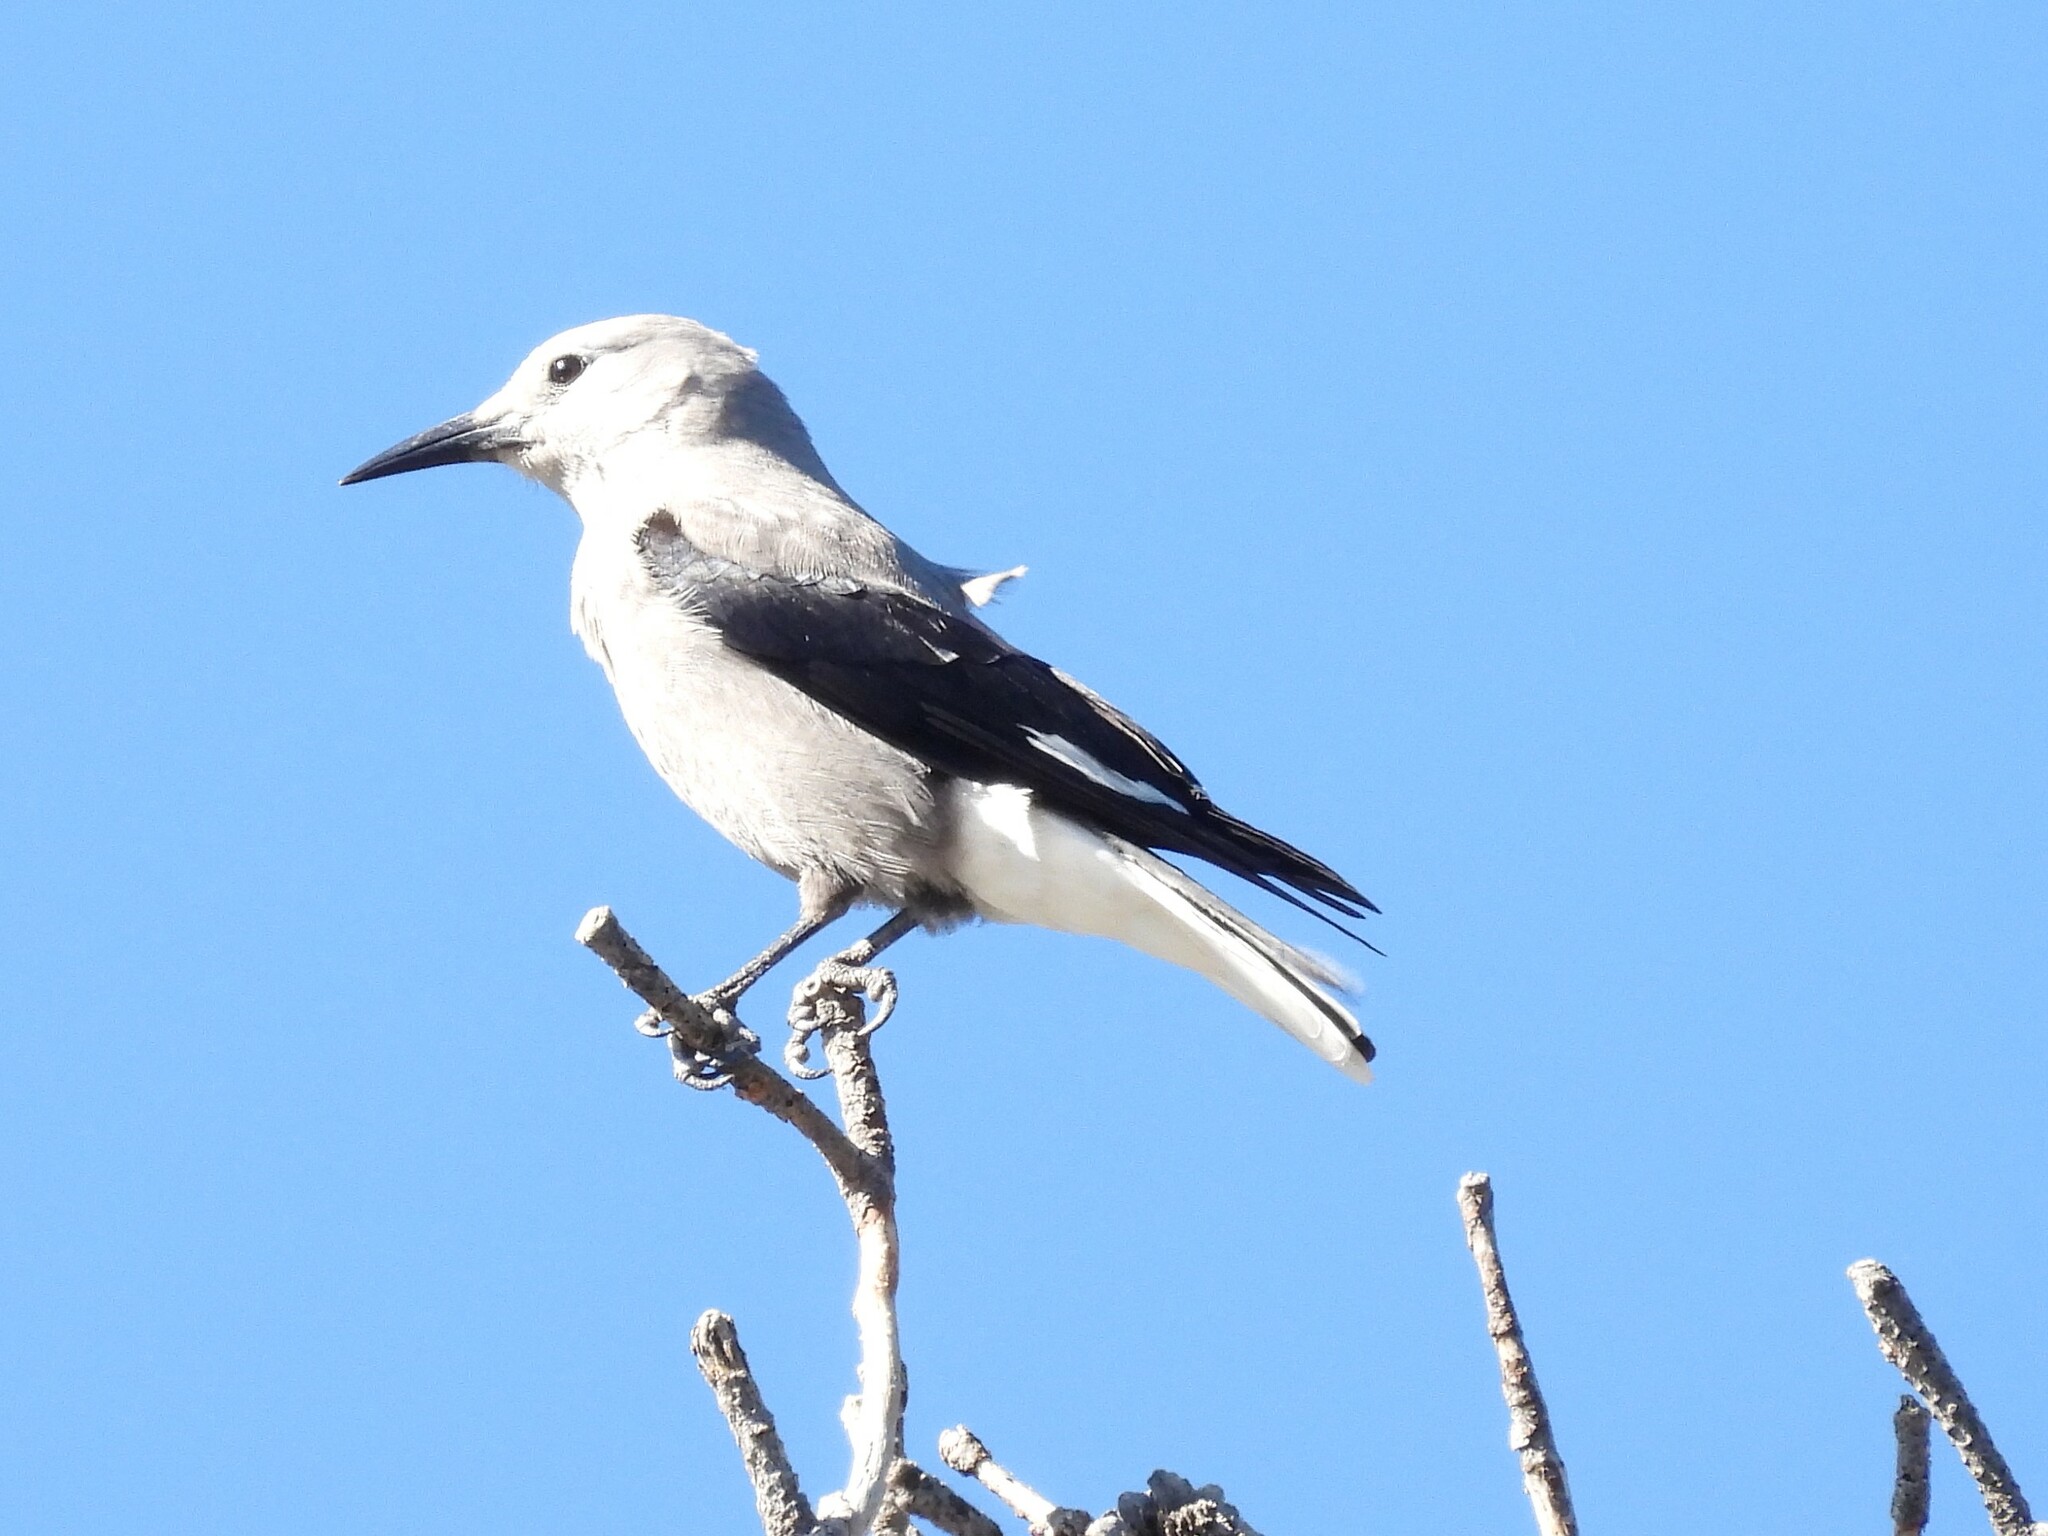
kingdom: Animalia
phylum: Chordata
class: Aves
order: Passeriformes
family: Corvidae
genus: Nucifraga
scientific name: Nucifraga columbiana
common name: Clark's nutcracker
